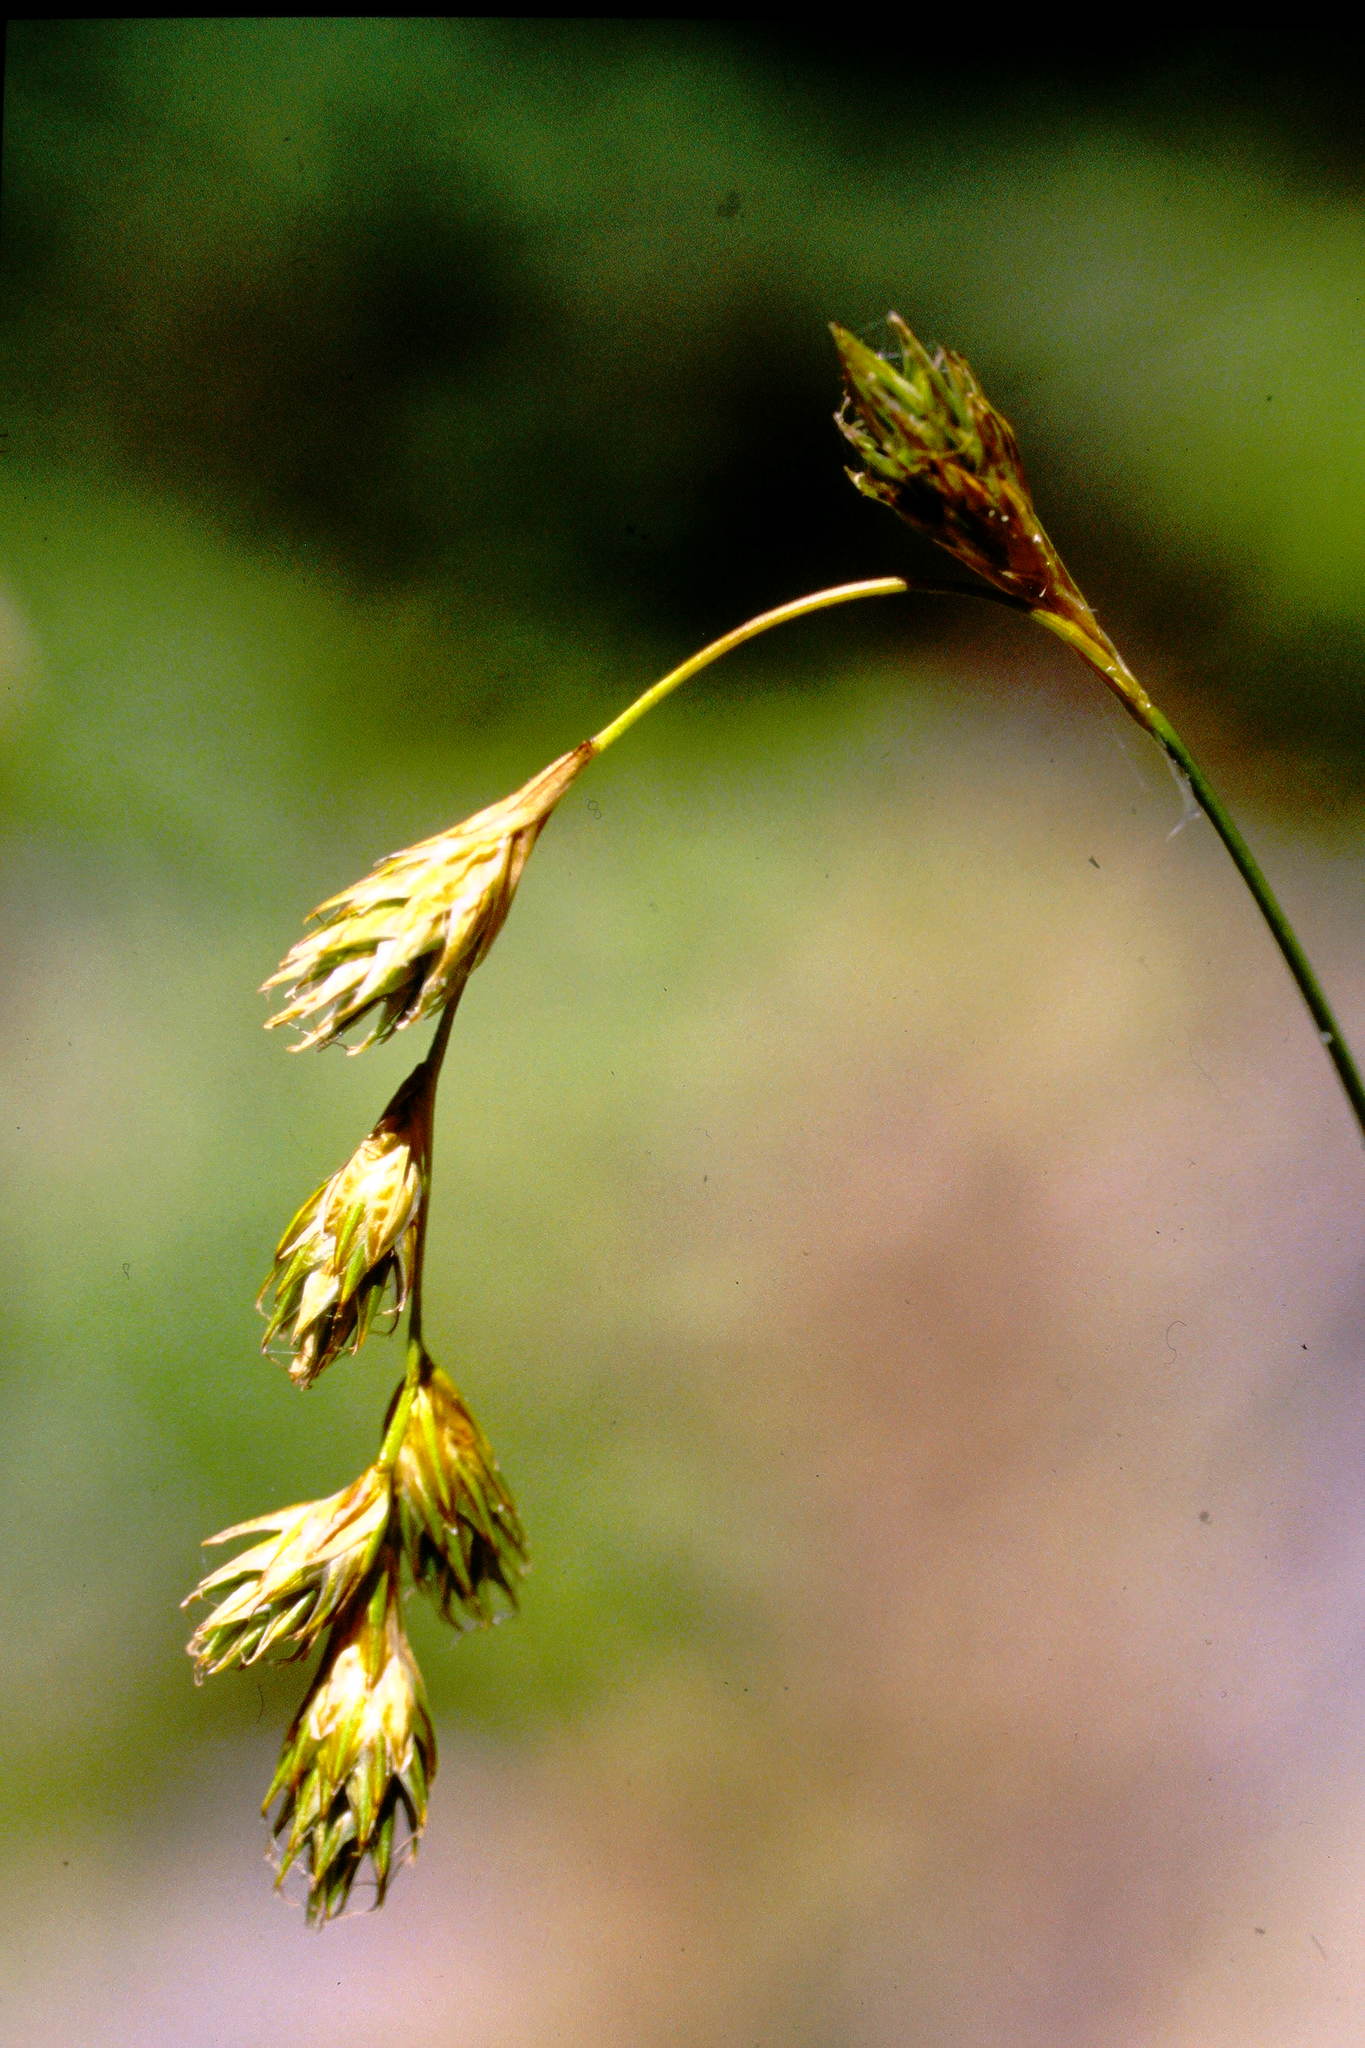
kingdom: Plantae
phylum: Tracheophyta
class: Liliopsida
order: Poales
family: Cyperaceae
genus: Carex
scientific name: Carex foenea
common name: Bronze sedge
